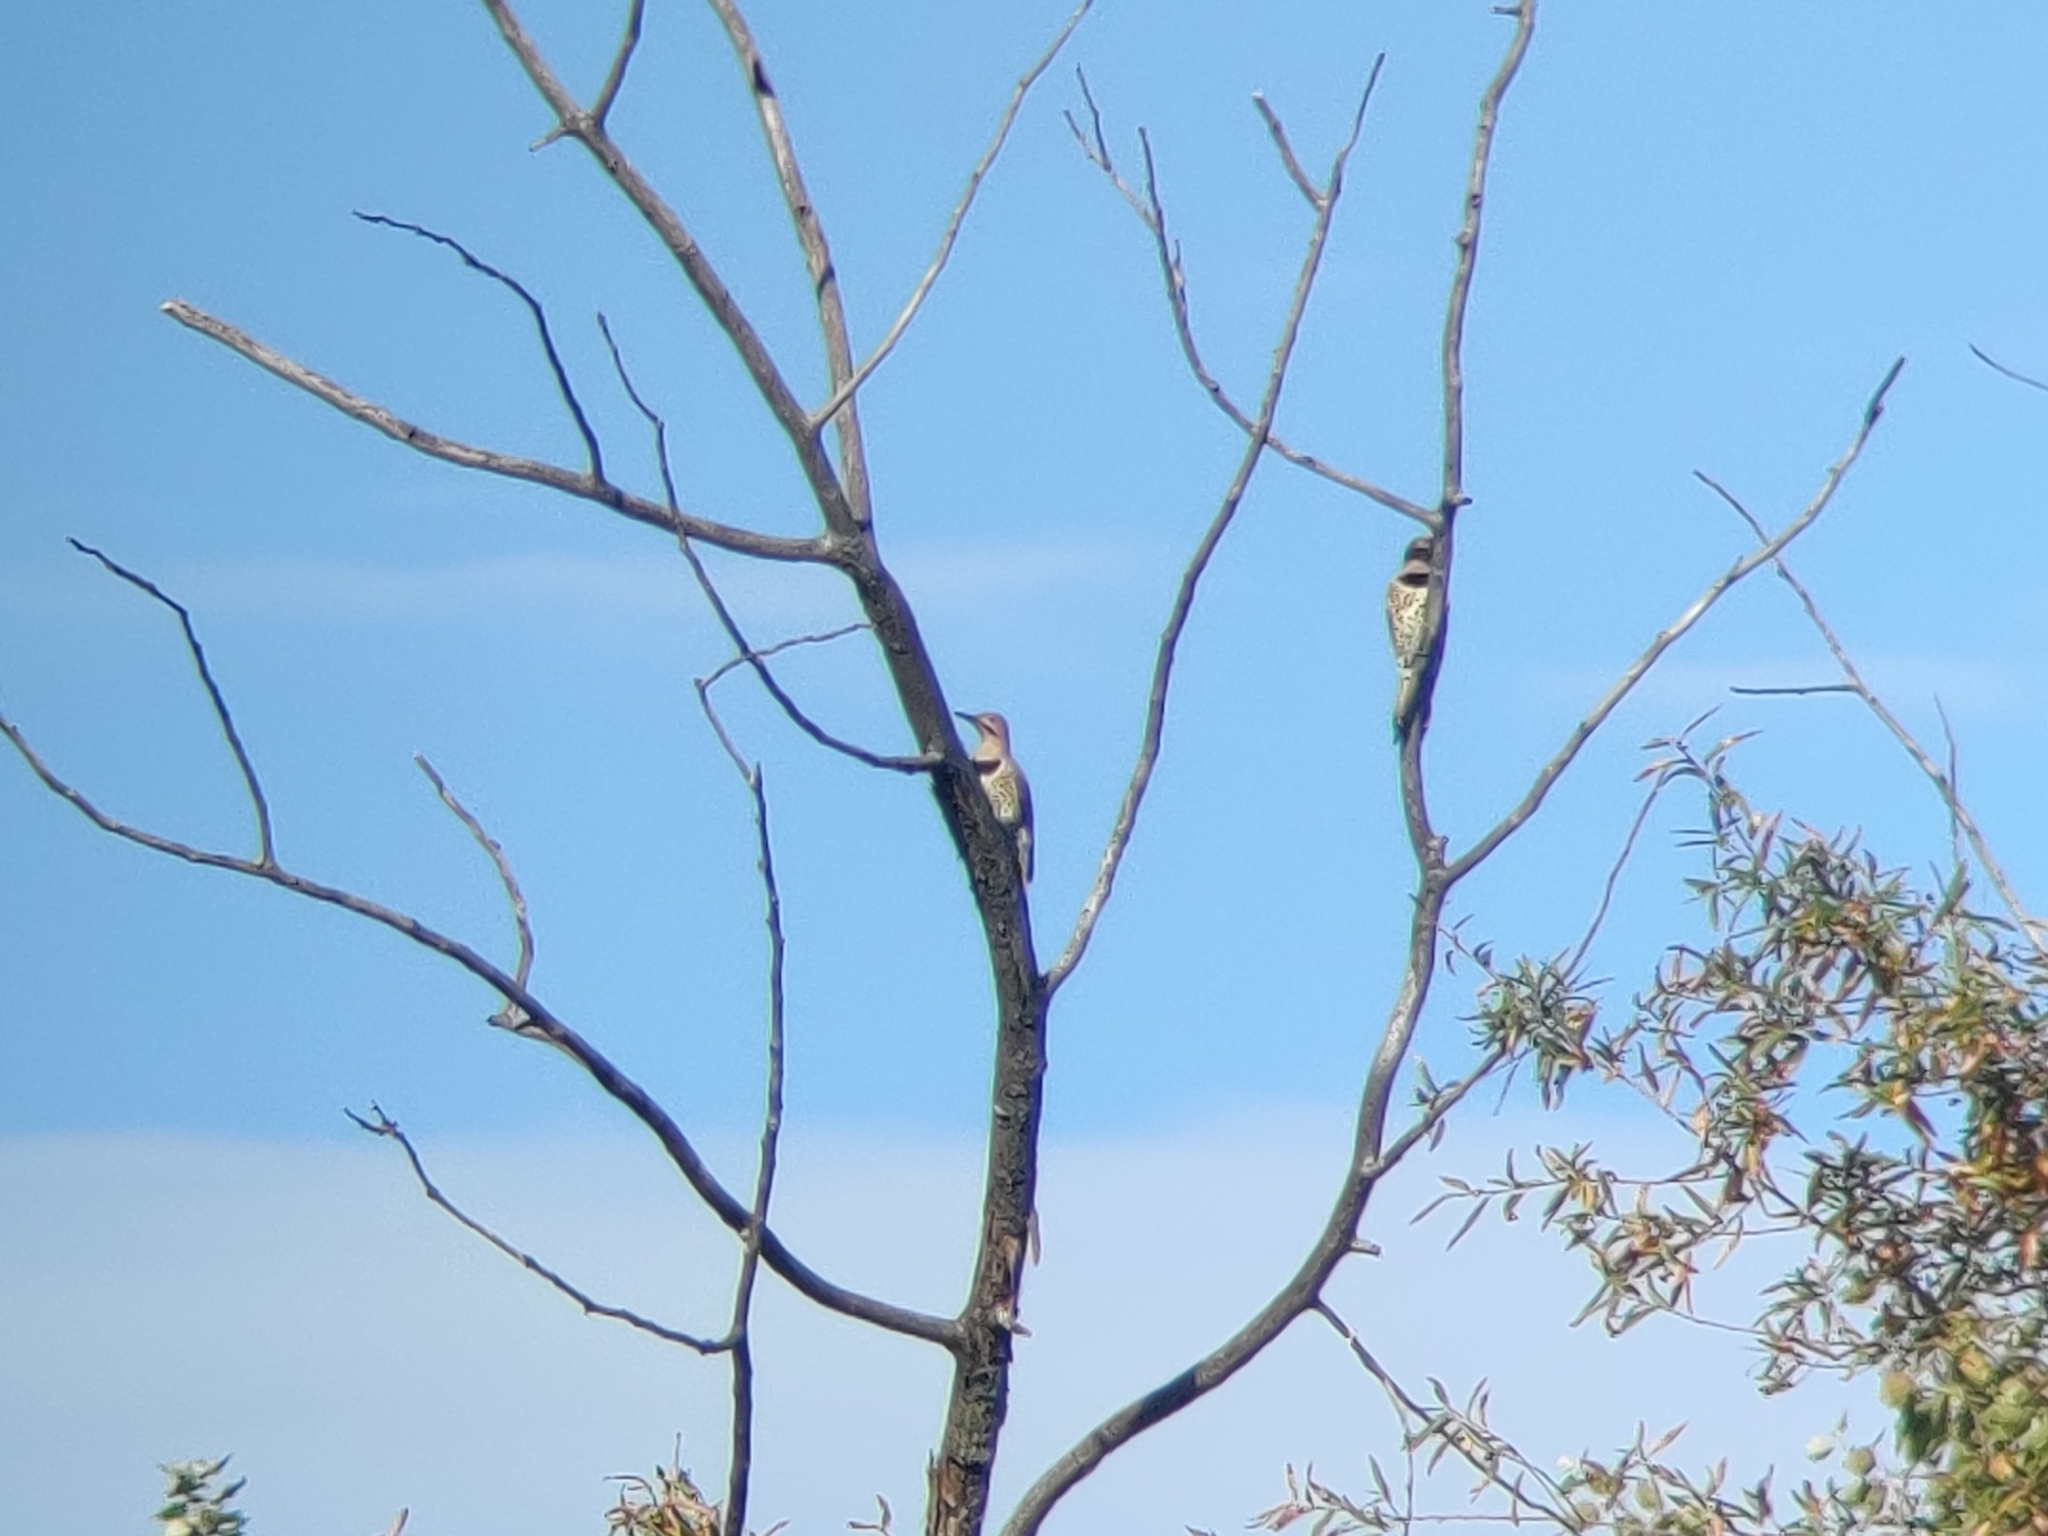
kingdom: Animalia
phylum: Chordata
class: Aves
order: Piciformes
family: Picidae
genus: Colaptes
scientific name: Colaptes auratus
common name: Northern flicker
